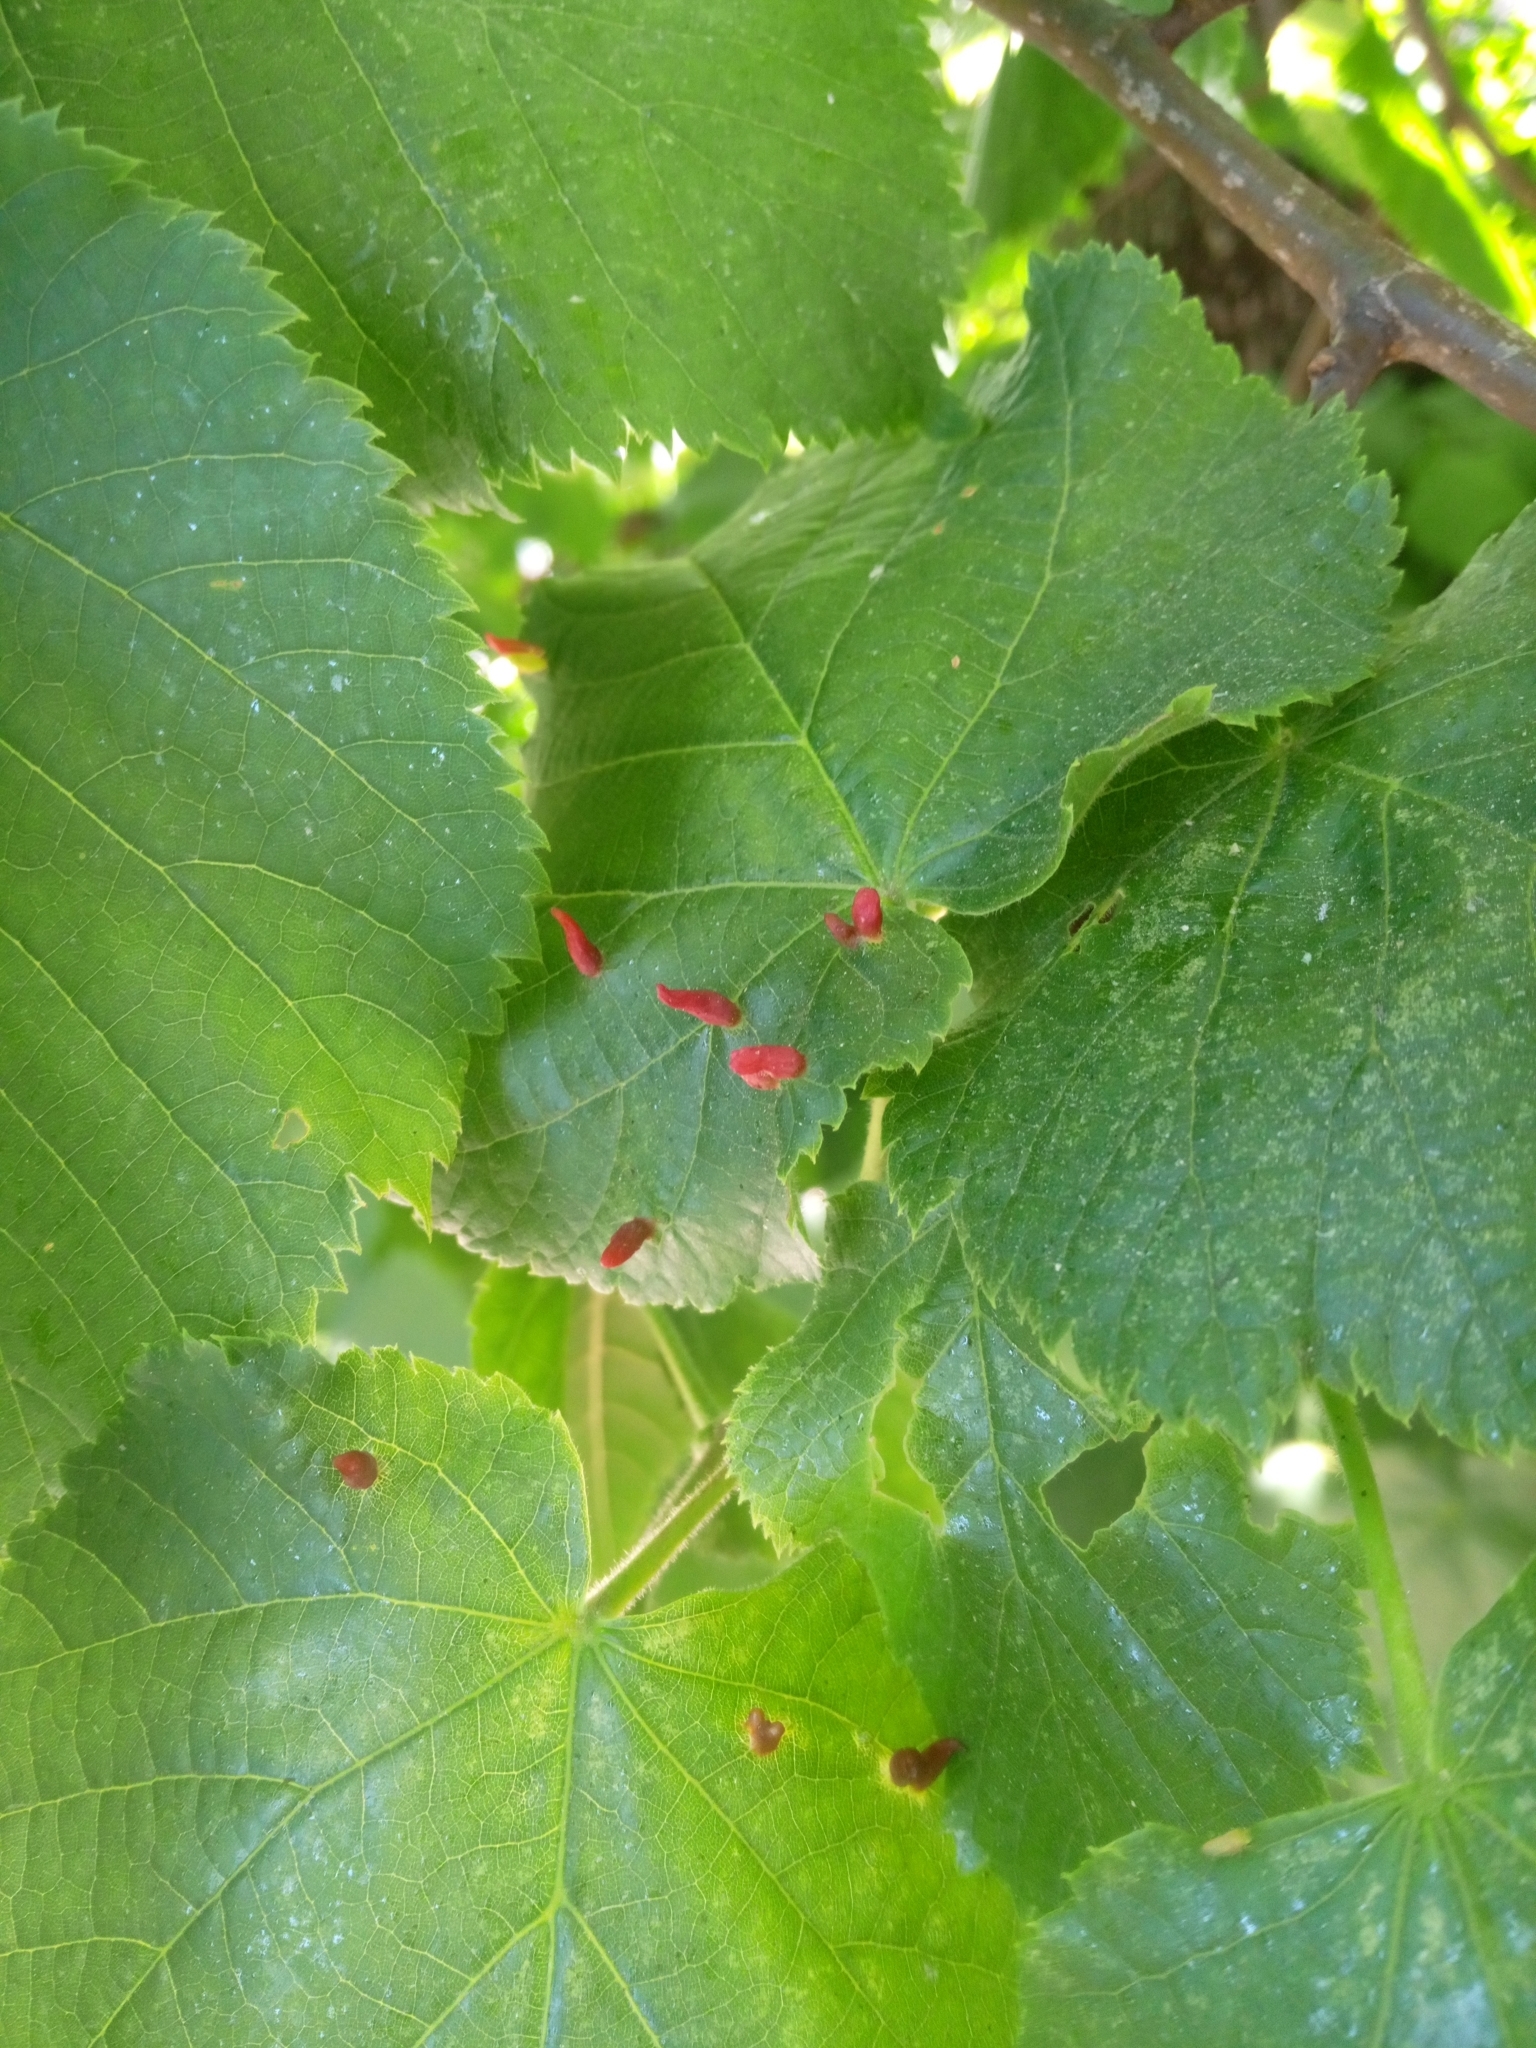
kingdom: Animalia
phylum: Arthropoda
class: Arachnida
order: Trombidiformes
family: Eriophyidae
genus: Eriophyes
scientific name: Eriophyes tiliae
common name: Red nail gall mite
